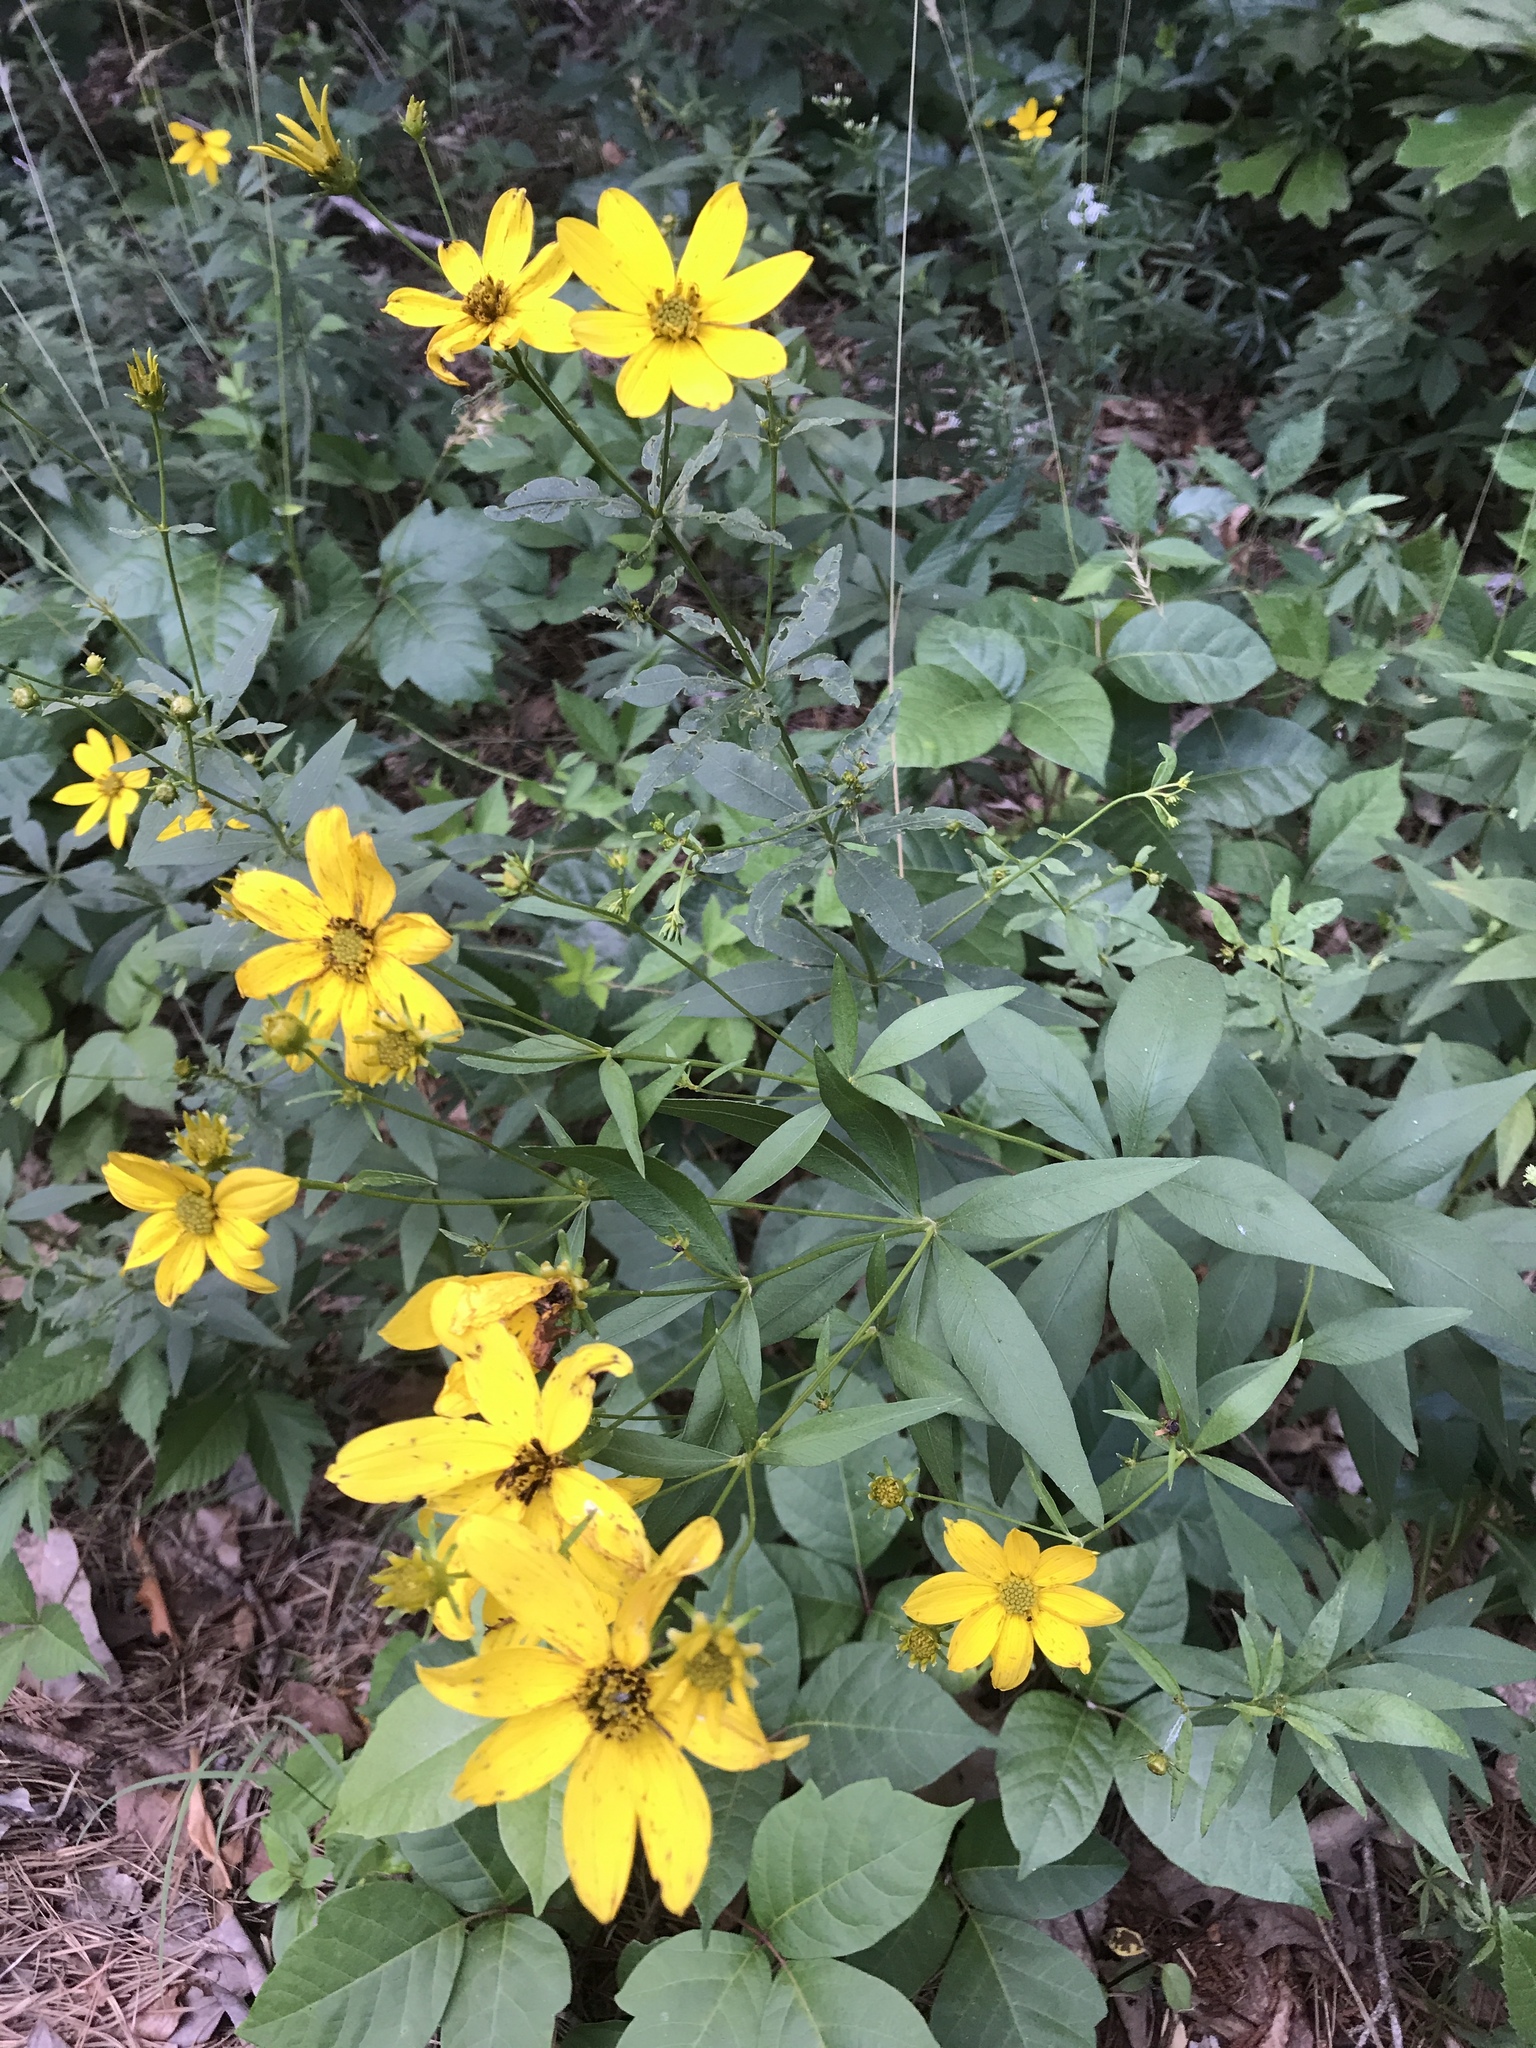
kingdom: Plantae
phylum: Tracheophyta
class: Magnoliopsida
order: Asterales
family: Asteraceae
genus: Coreopsis
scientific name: Coreopsis major
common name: Forest tickseed
